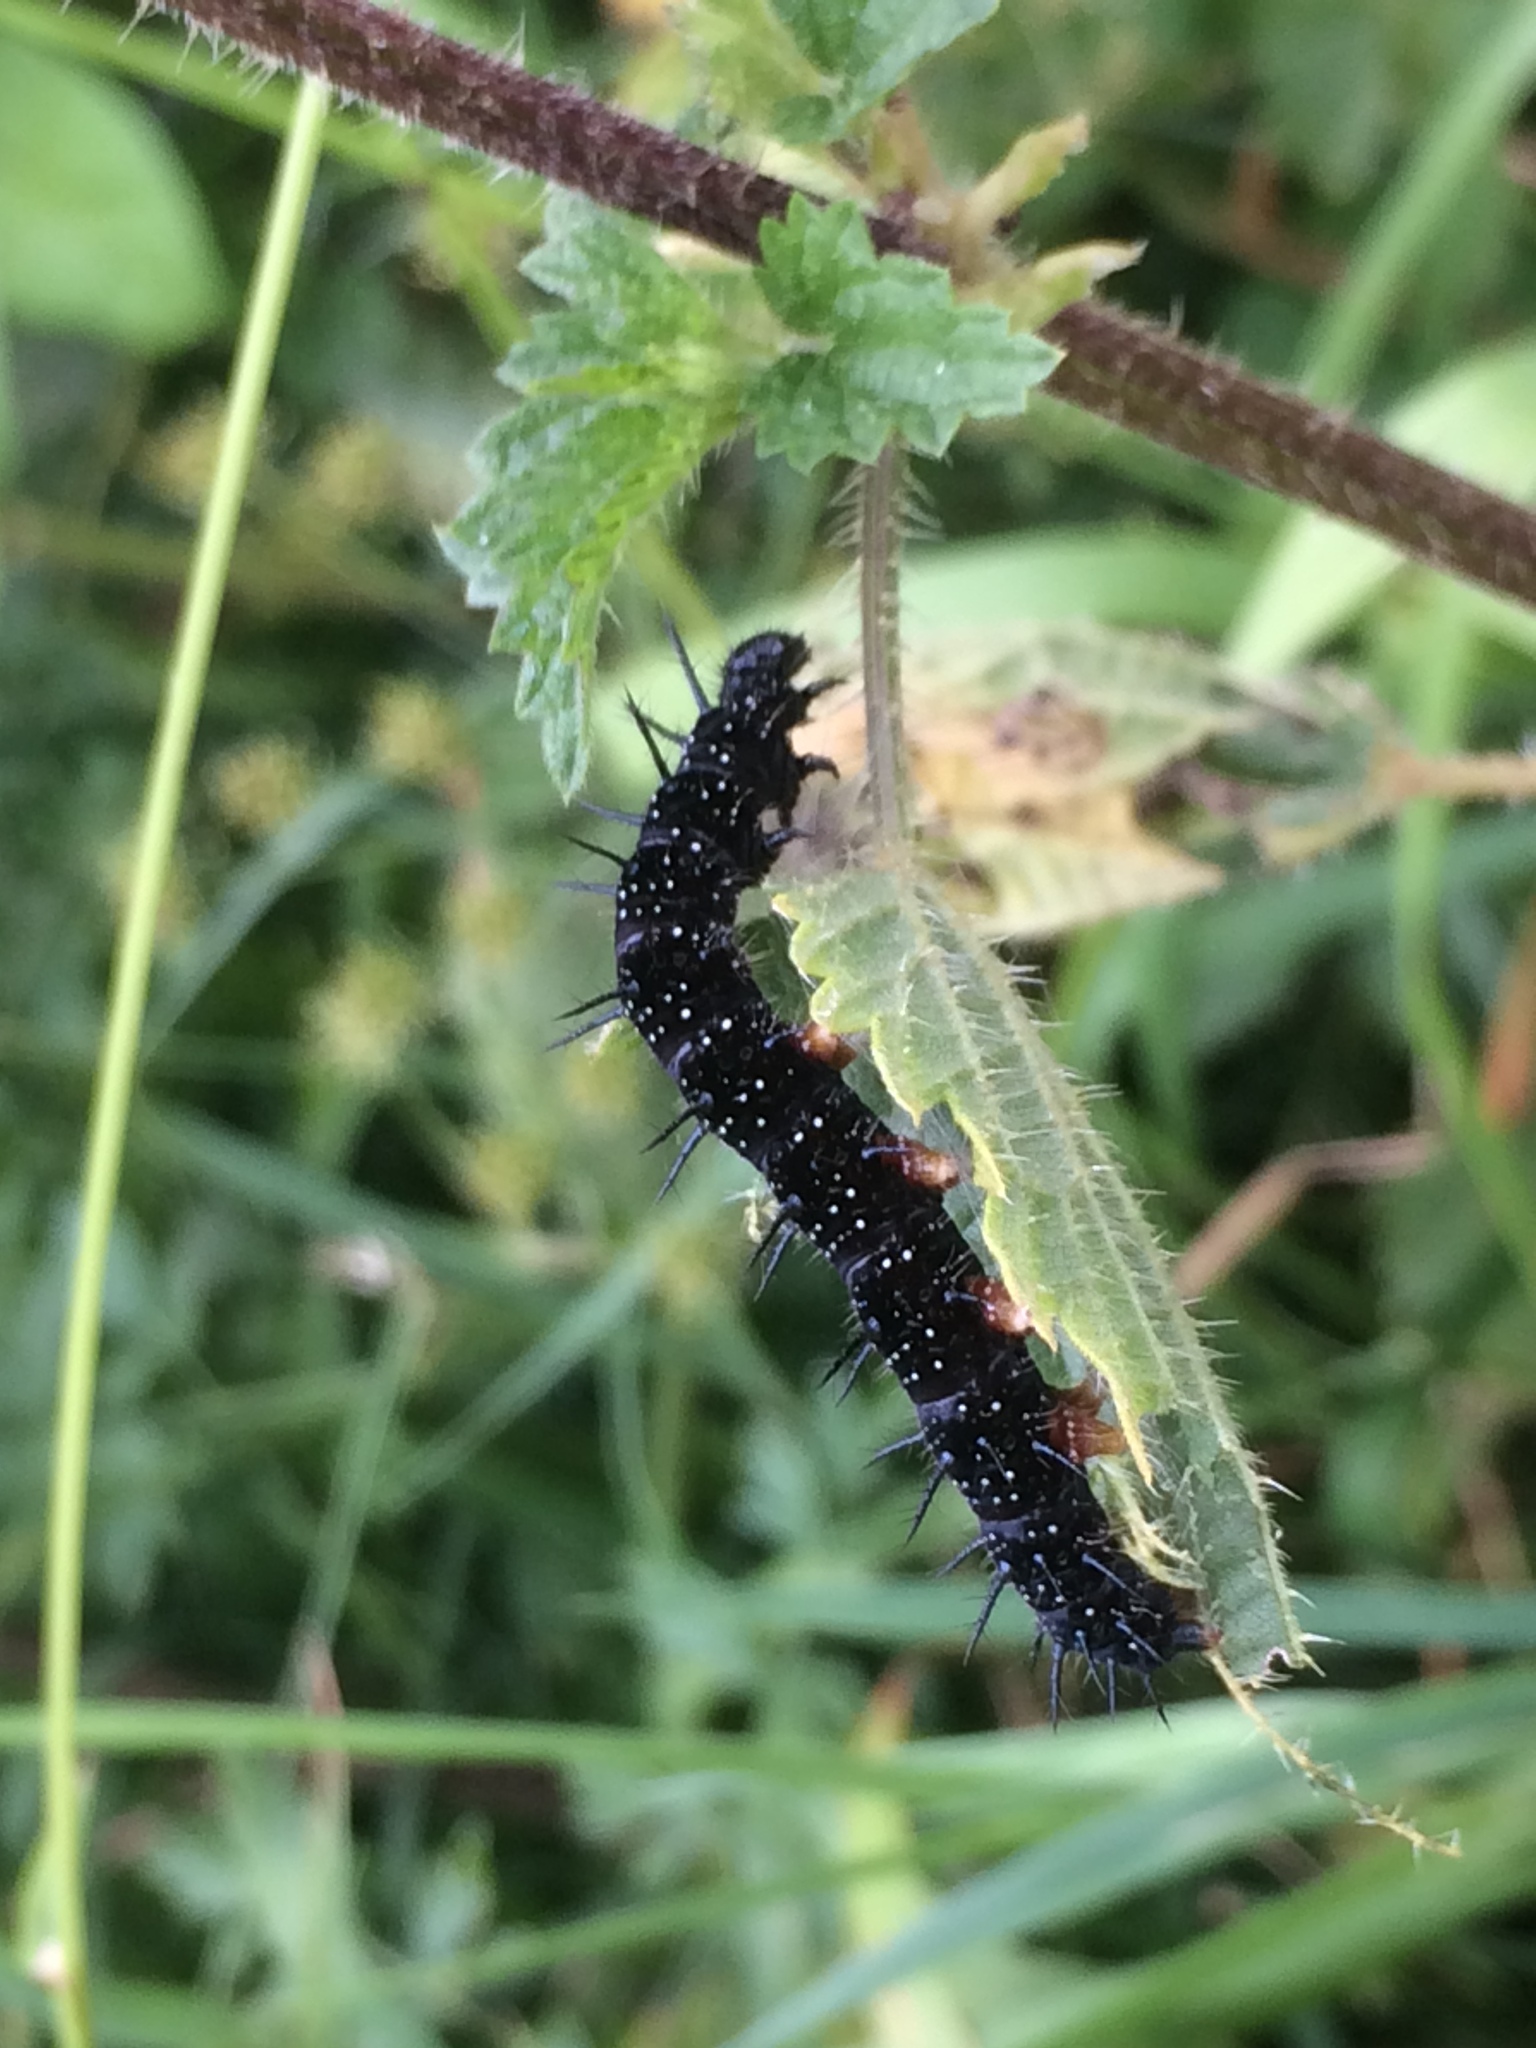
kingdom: Animalia
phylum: Arthropoda
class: Insecta
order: Lepidoptera
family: Nymphalidae
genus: Aglais
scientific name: Aglais io
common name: Peacock
